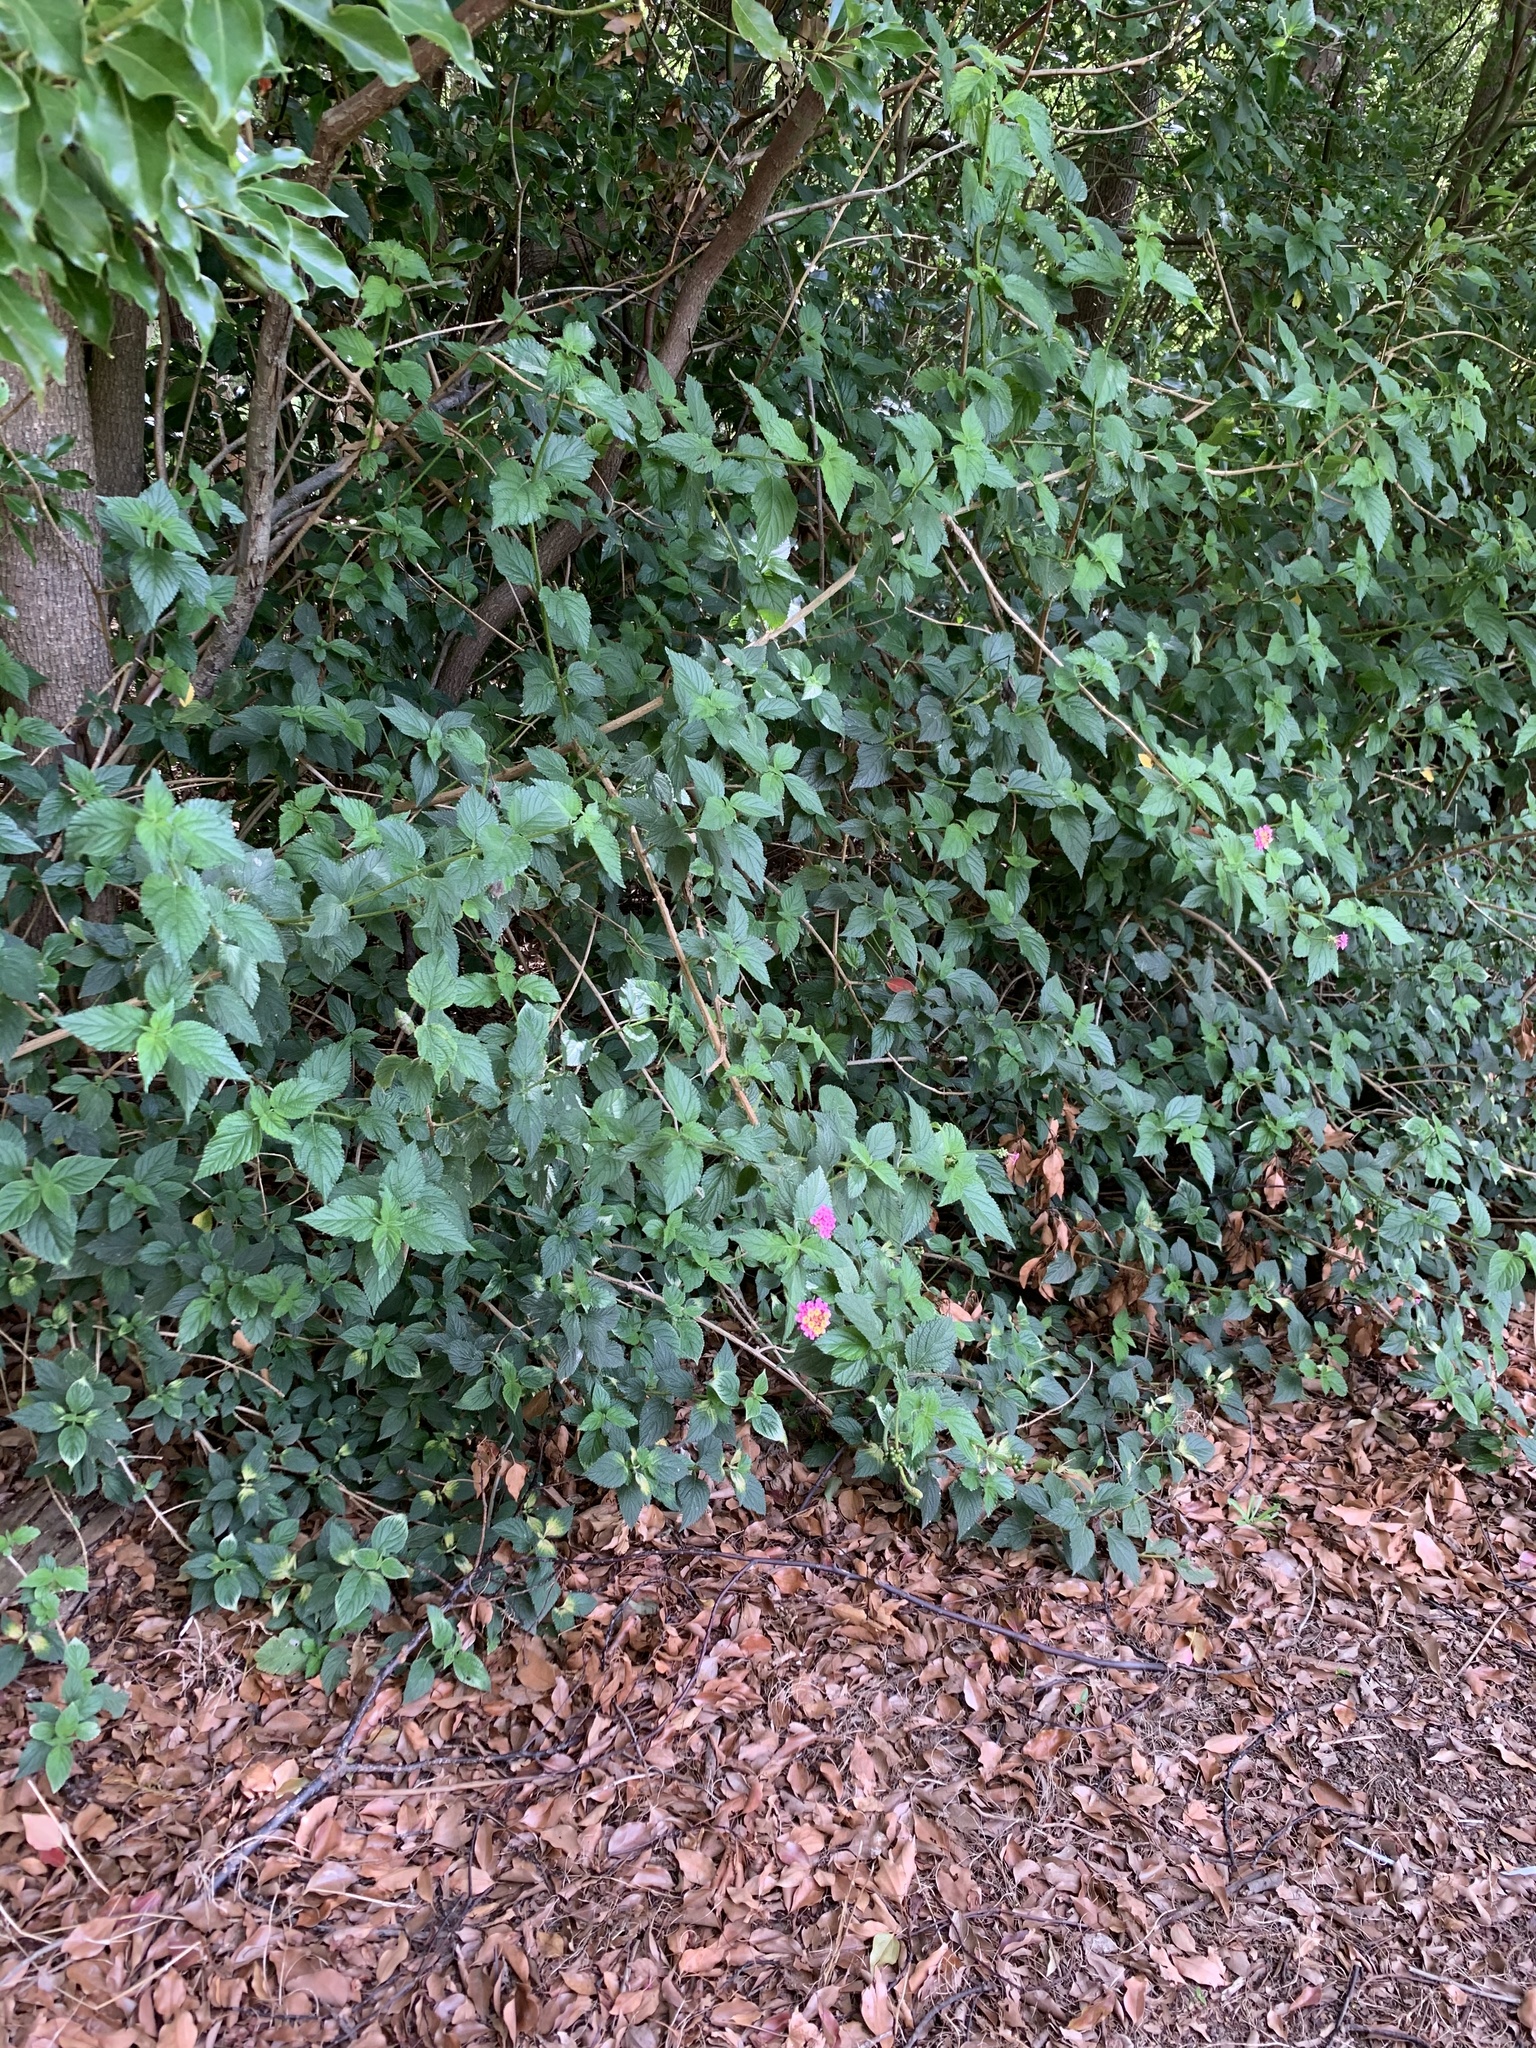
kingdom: Plantae
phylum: Tracheophyta
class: Magnoliopsida
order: Lamiales
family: Verbenaceae
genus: Lantana
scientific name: Lantana camara
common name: Lantana
